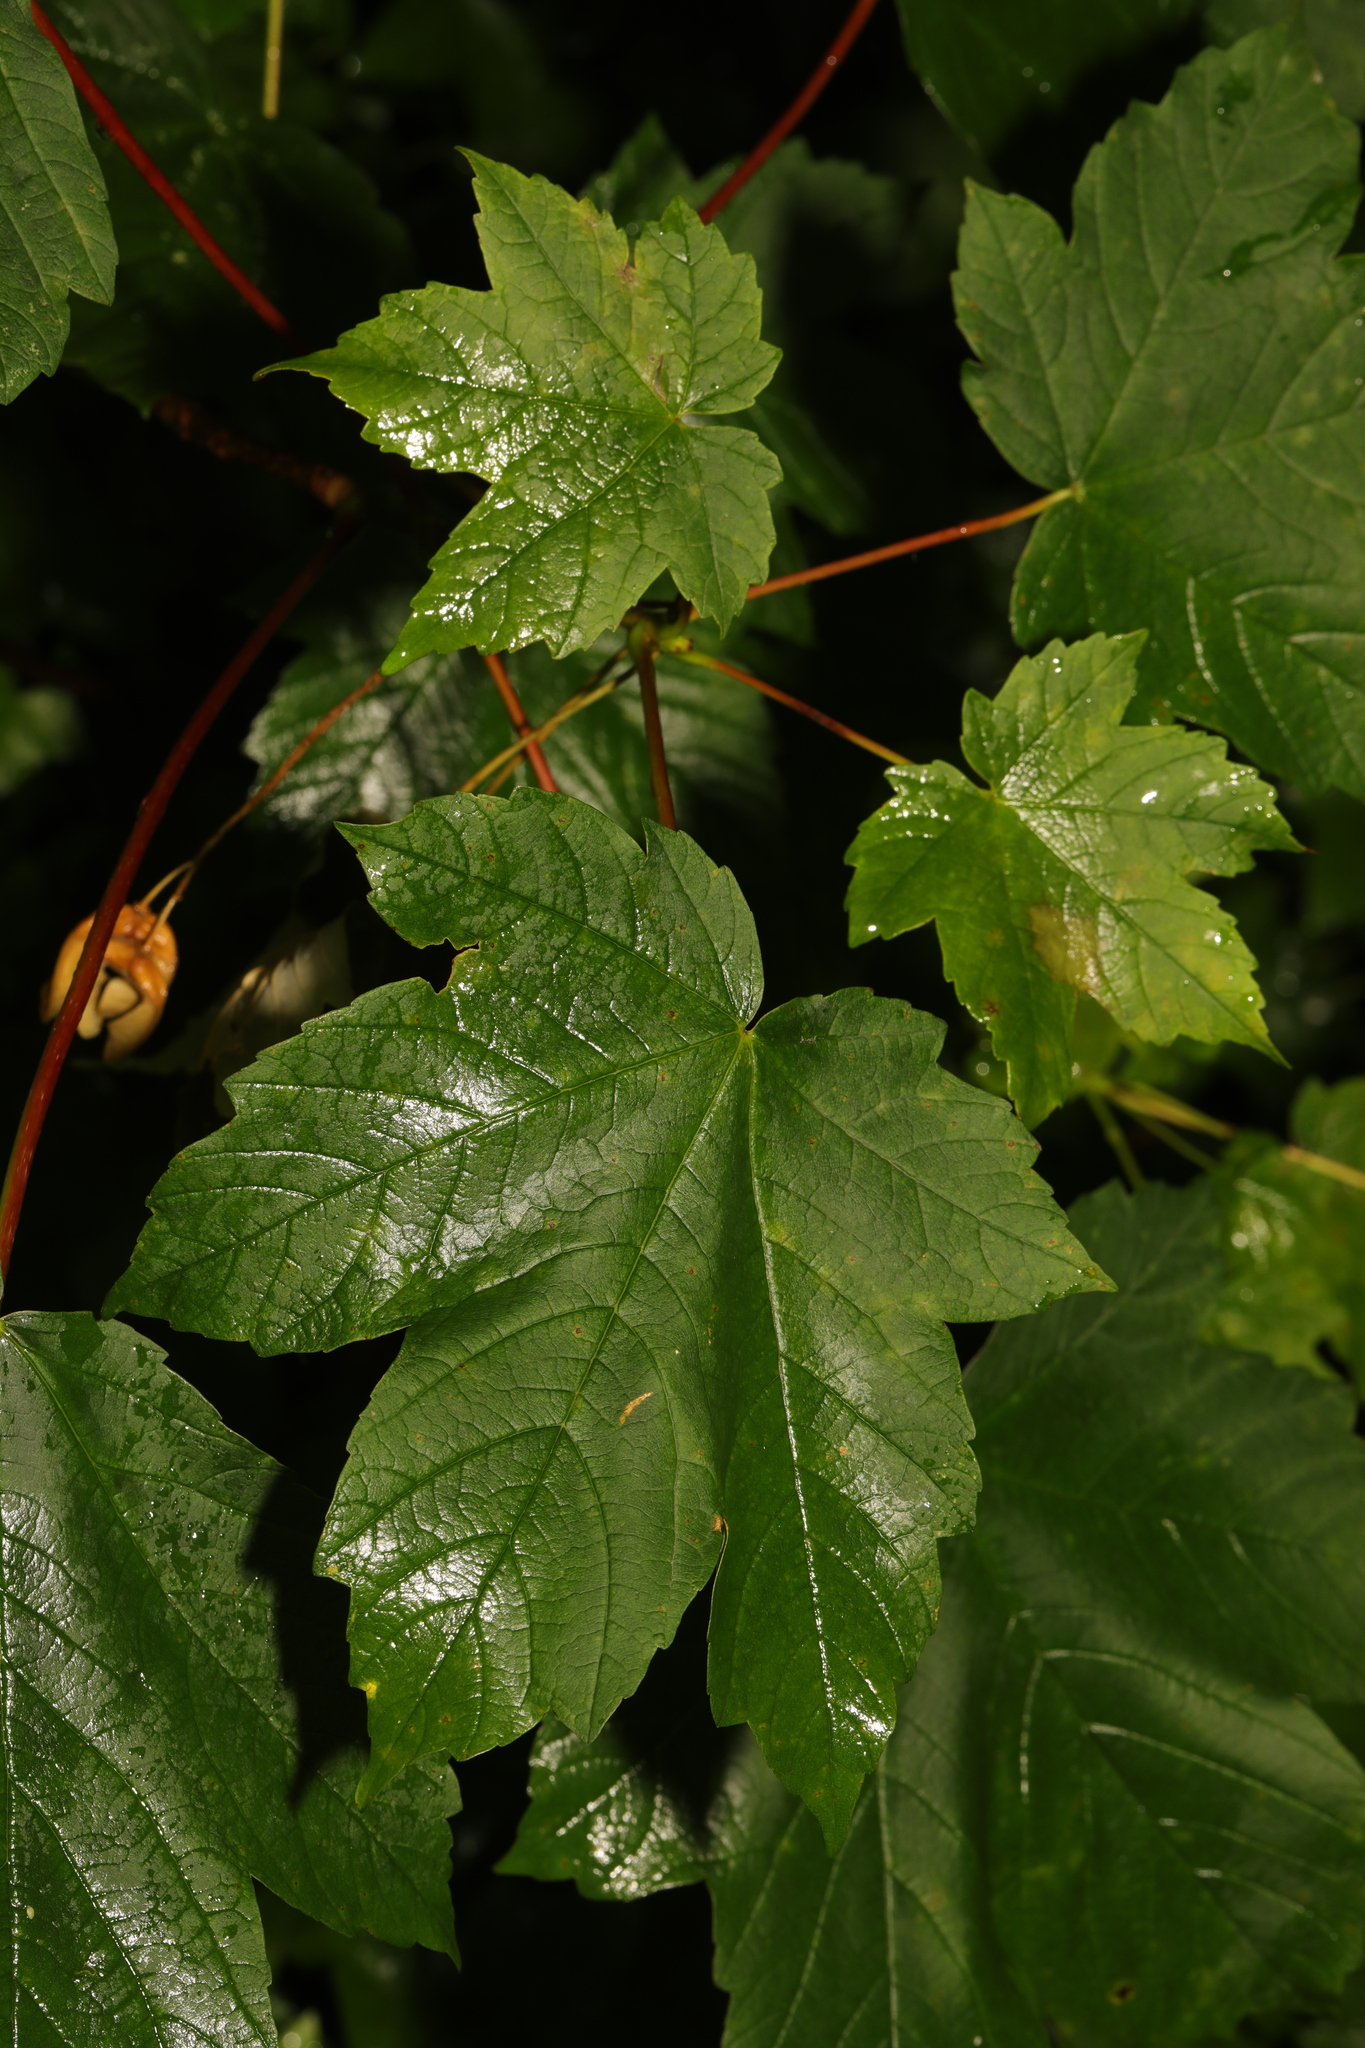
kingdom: Plantae
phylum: Tracheophyta
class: Magnoliopsida
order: Sapindales
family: Sapindaceae
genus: Acer
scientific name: Acer pseudoplatanus
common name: Sycamore
